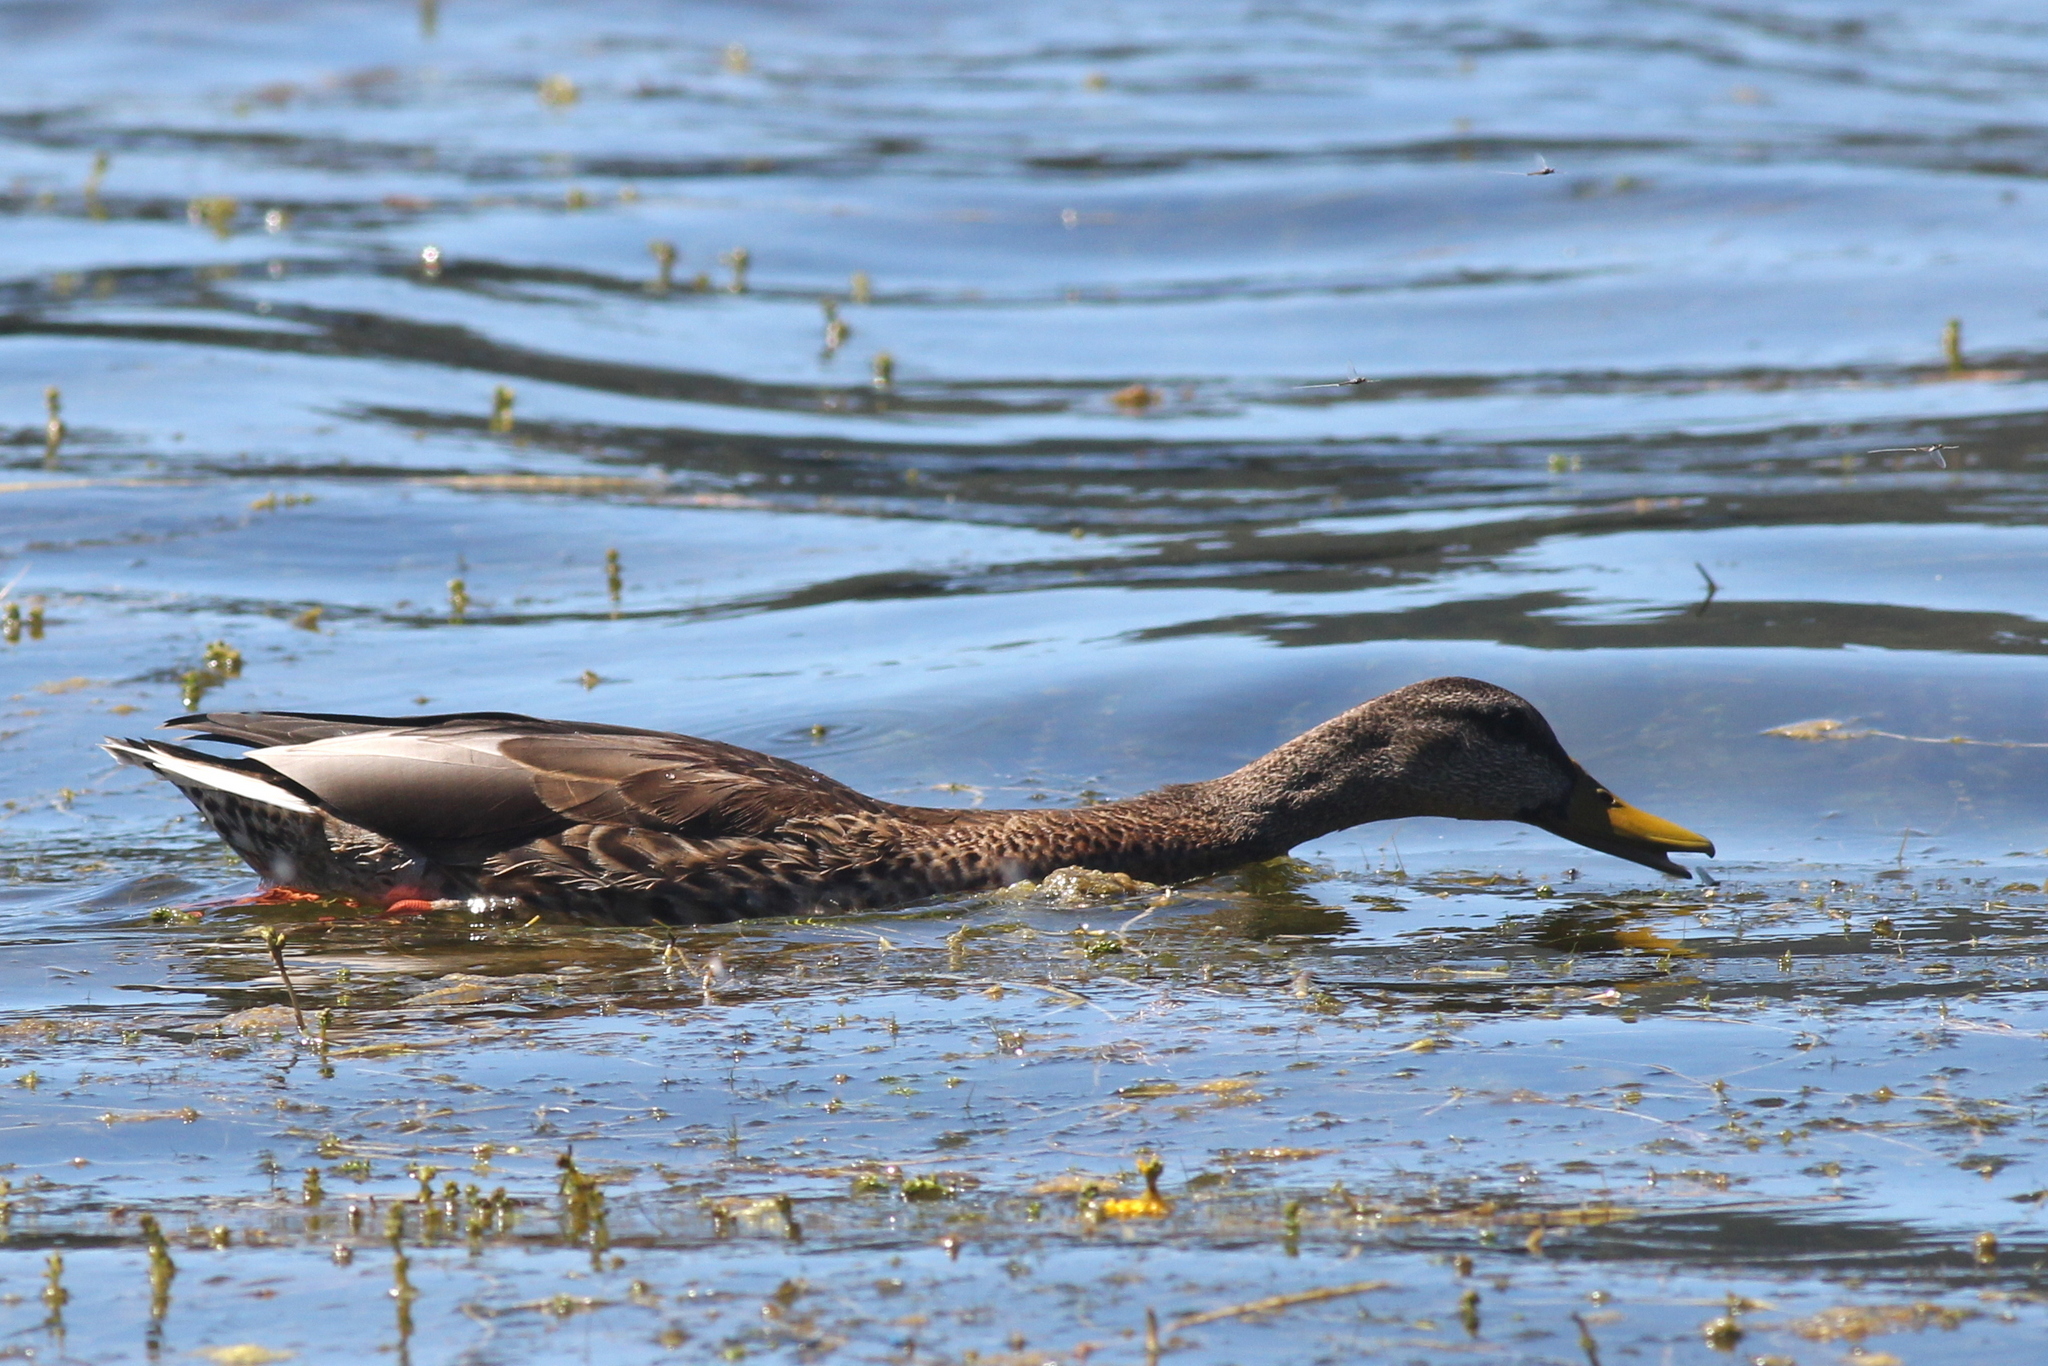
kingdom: Animalia
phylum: Chordata
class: Aves
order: Anseriformes
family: Anatidae
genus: Anas
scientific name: Anas platyrhynchos
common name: Mallard
